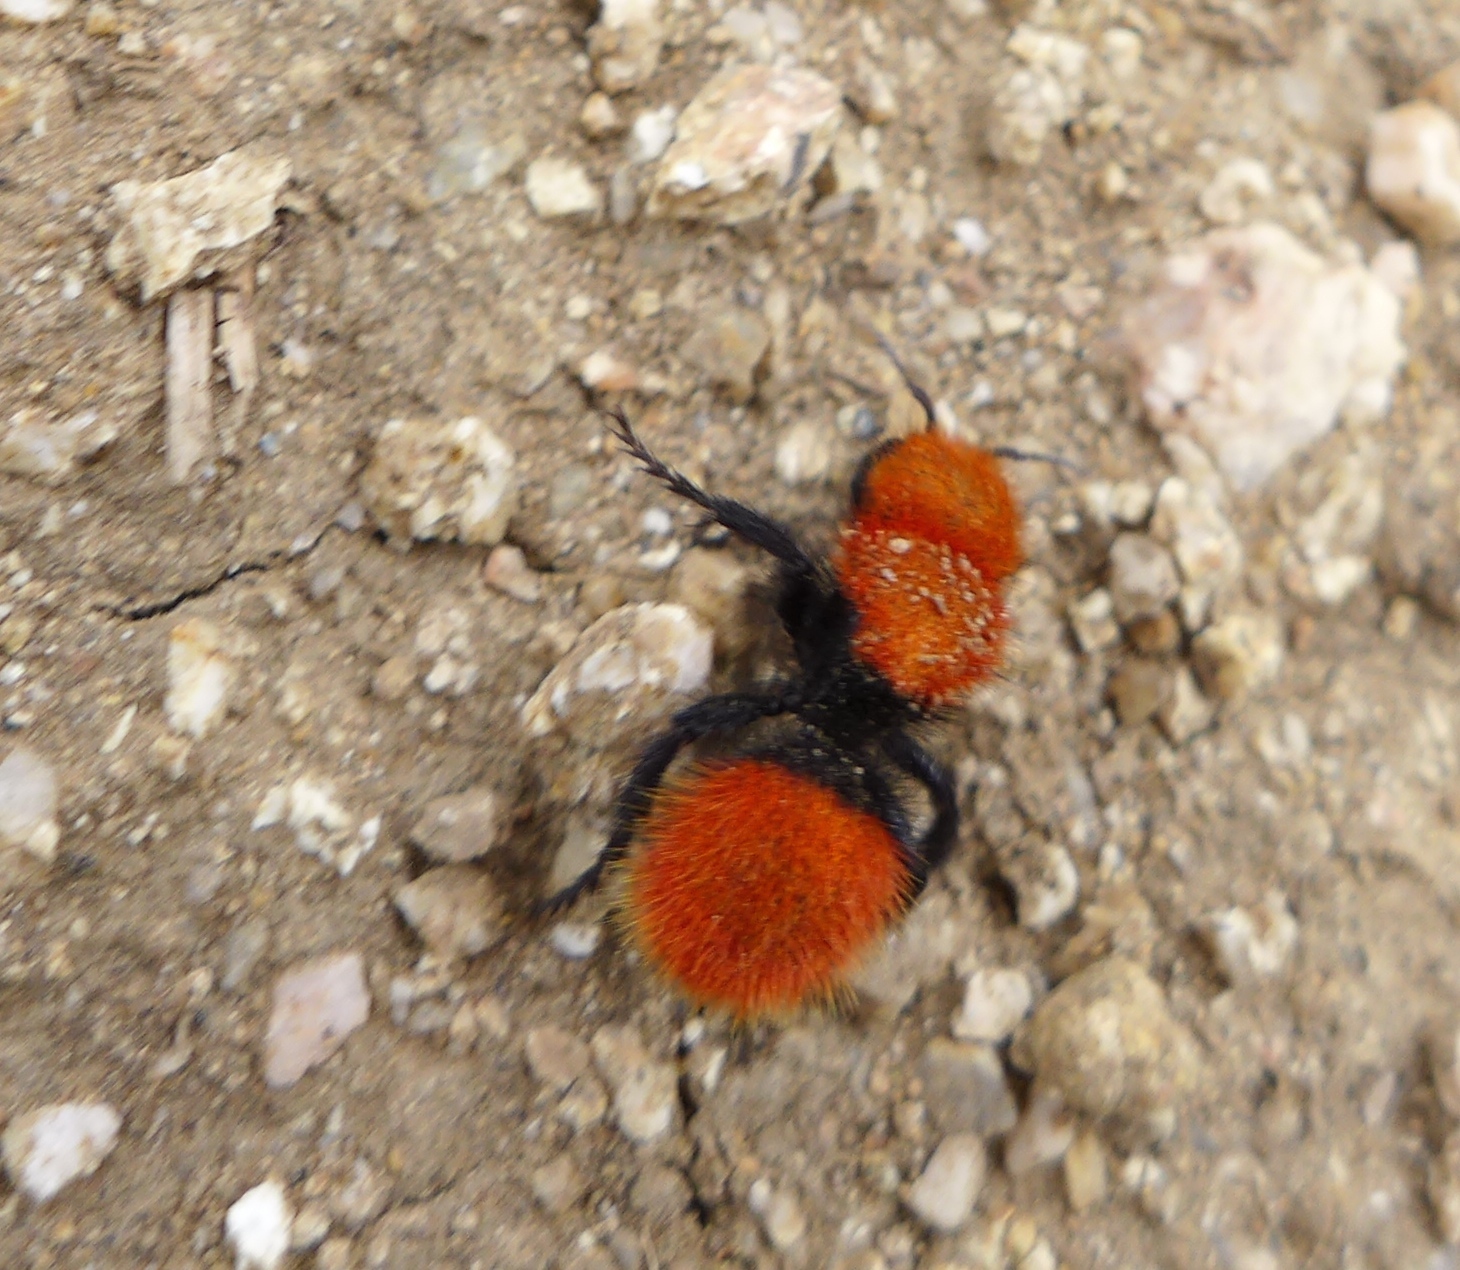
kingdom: Animalia
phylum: Arthropoda
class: Insecta
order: Hymenoptera
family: Mutillidae
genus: Dasymutilla
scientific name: Dasymutilla
